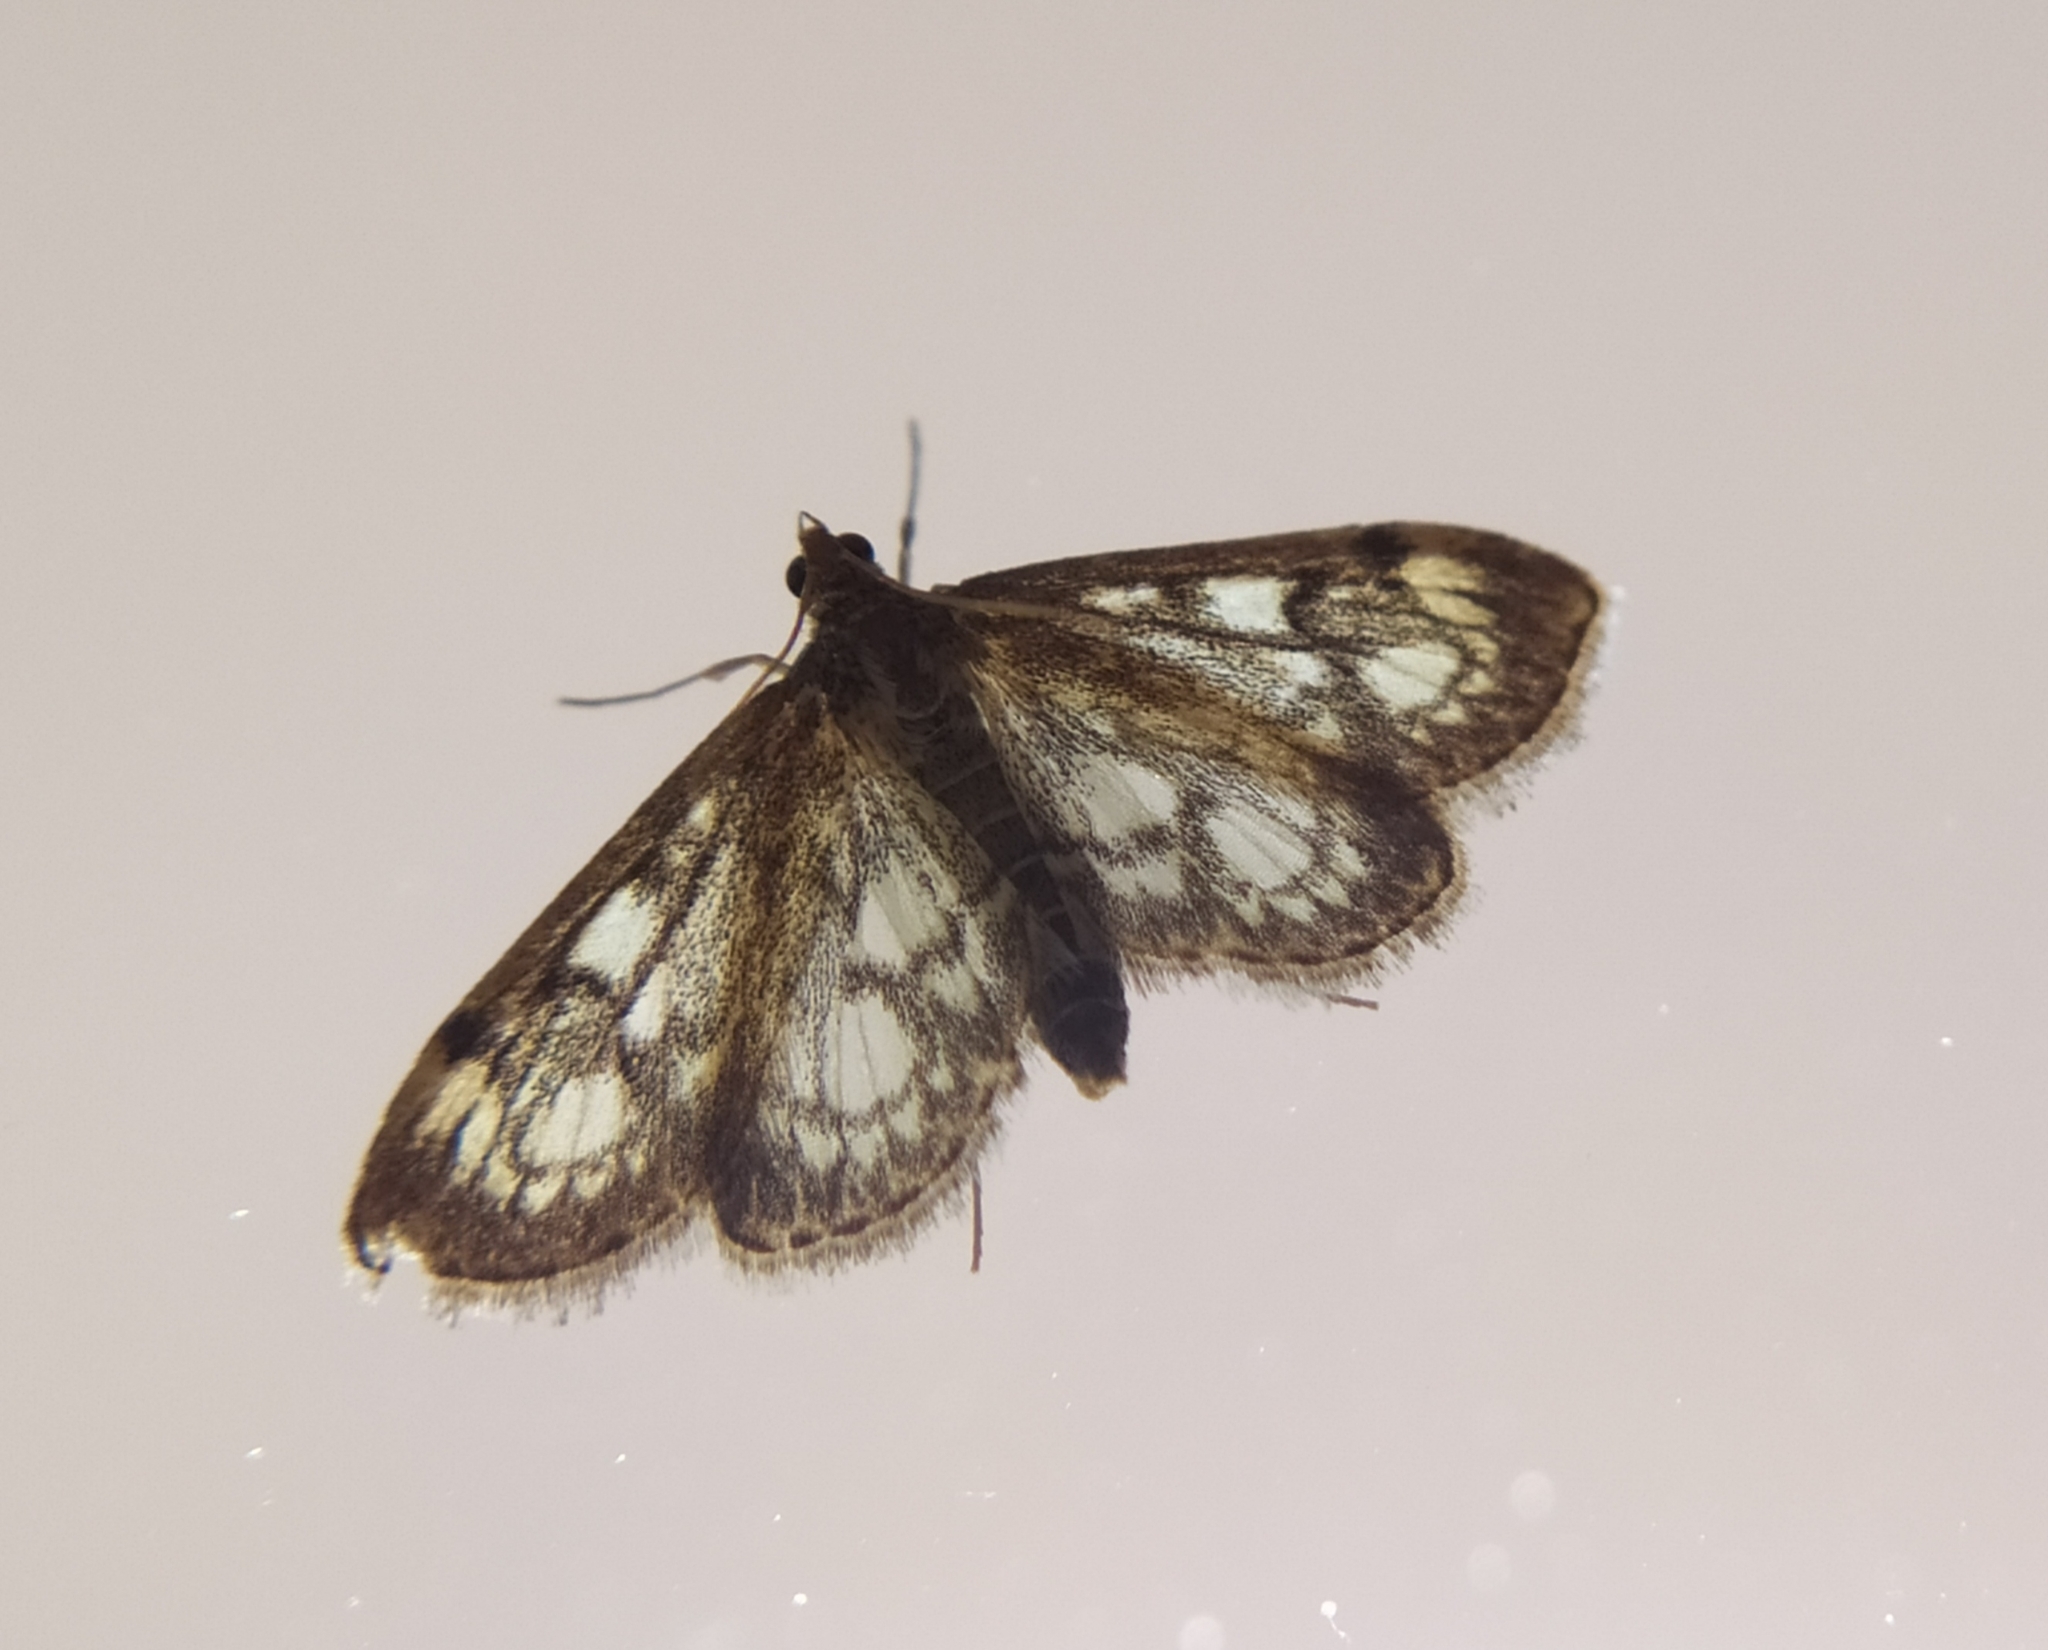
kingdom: Animalia
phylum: Arthropoda
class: Insecta
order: Lepidoptera
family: Crambidae
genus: Anania
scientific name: Anania coronata
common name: Elder pearl
